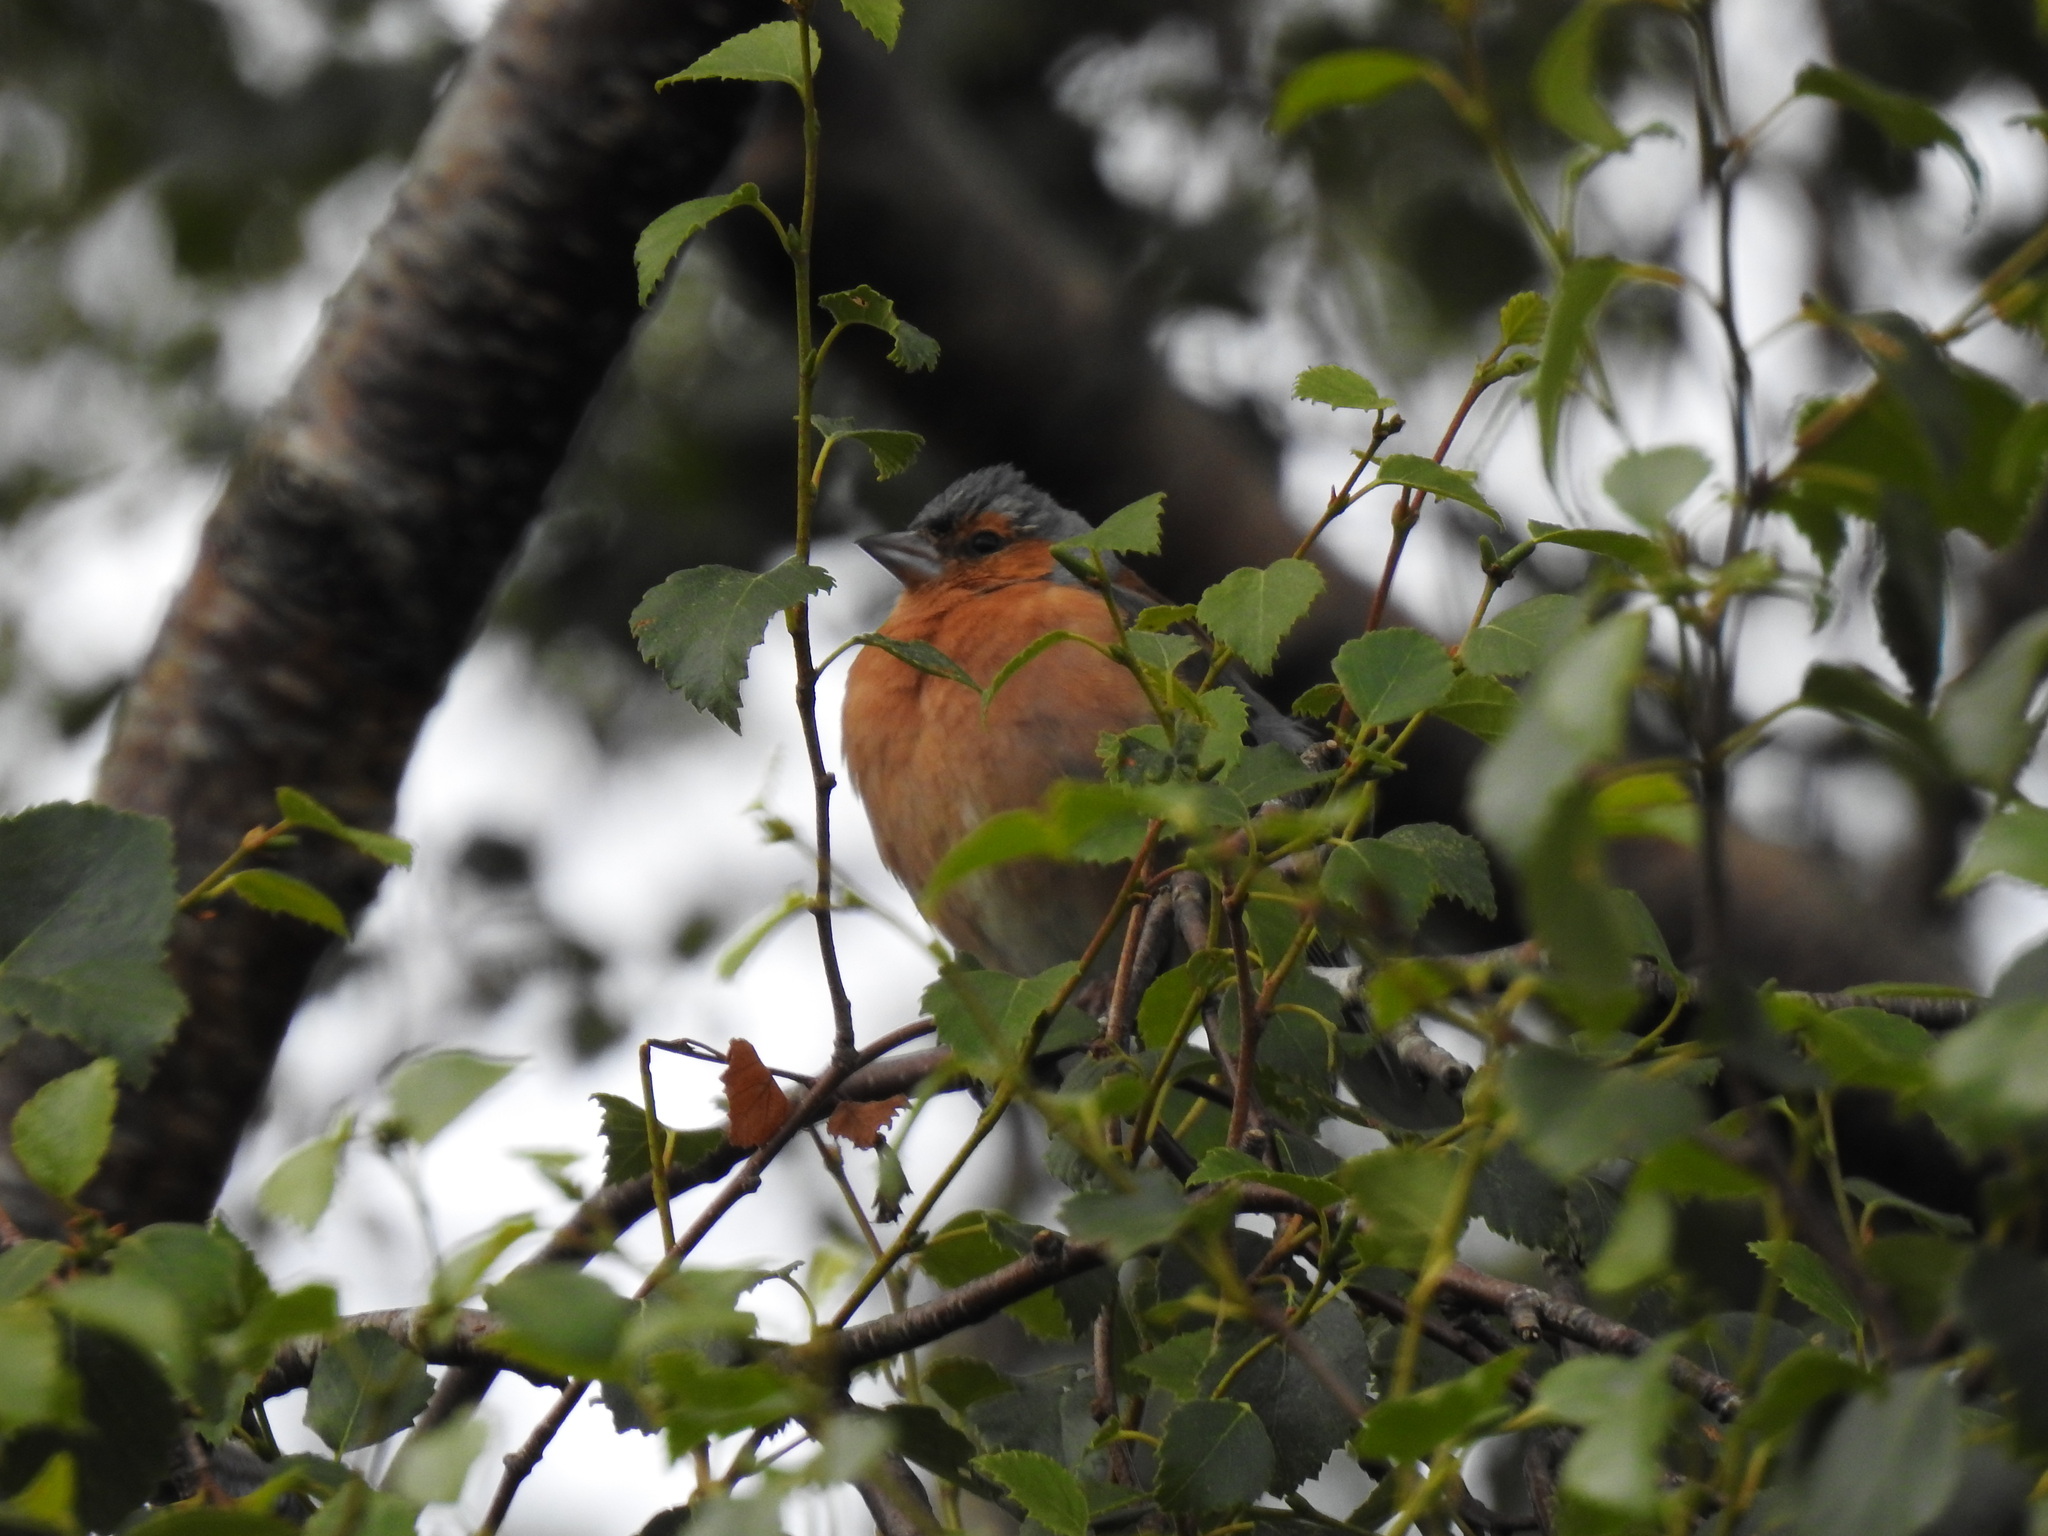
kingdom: Animalia
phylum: Chordata
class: Aves
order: Passeriformes
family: Fringillidae
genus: Fringilla
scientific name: Fringilla coelebs
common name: Common chaffinch
